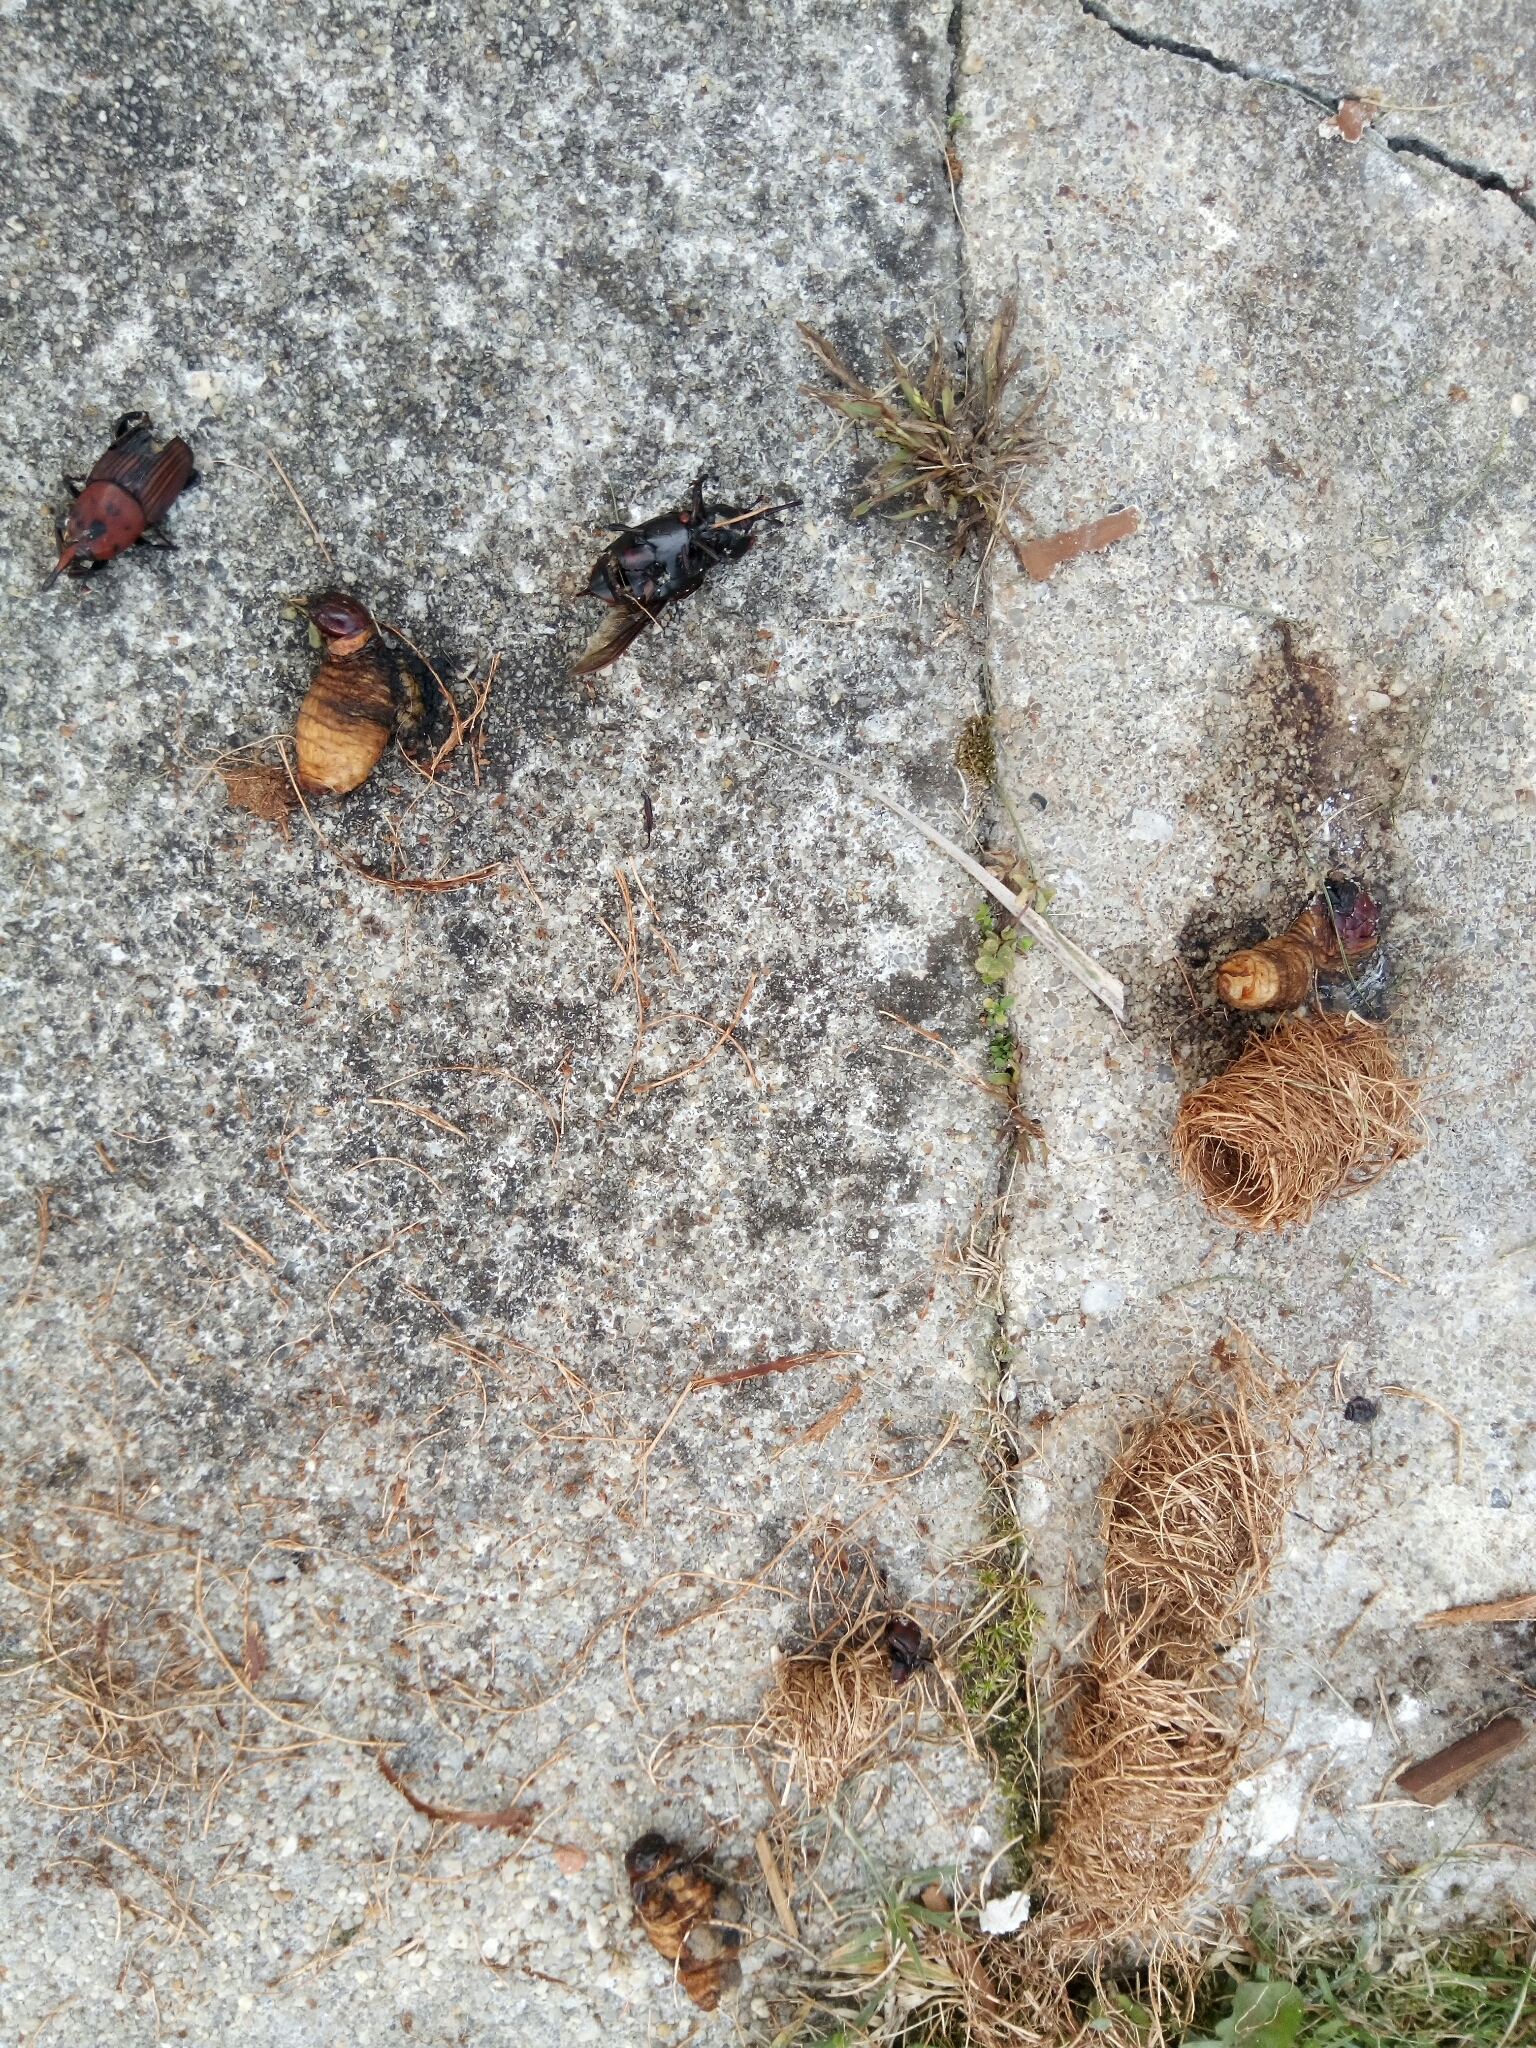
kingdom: Animalia
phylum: Arthropoda
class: Insecta
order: Coleoptera
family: Dryophthoridae
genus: Rhynchophorus
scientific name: Rhynchophorus ferrugineus
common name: Red palm weevil
